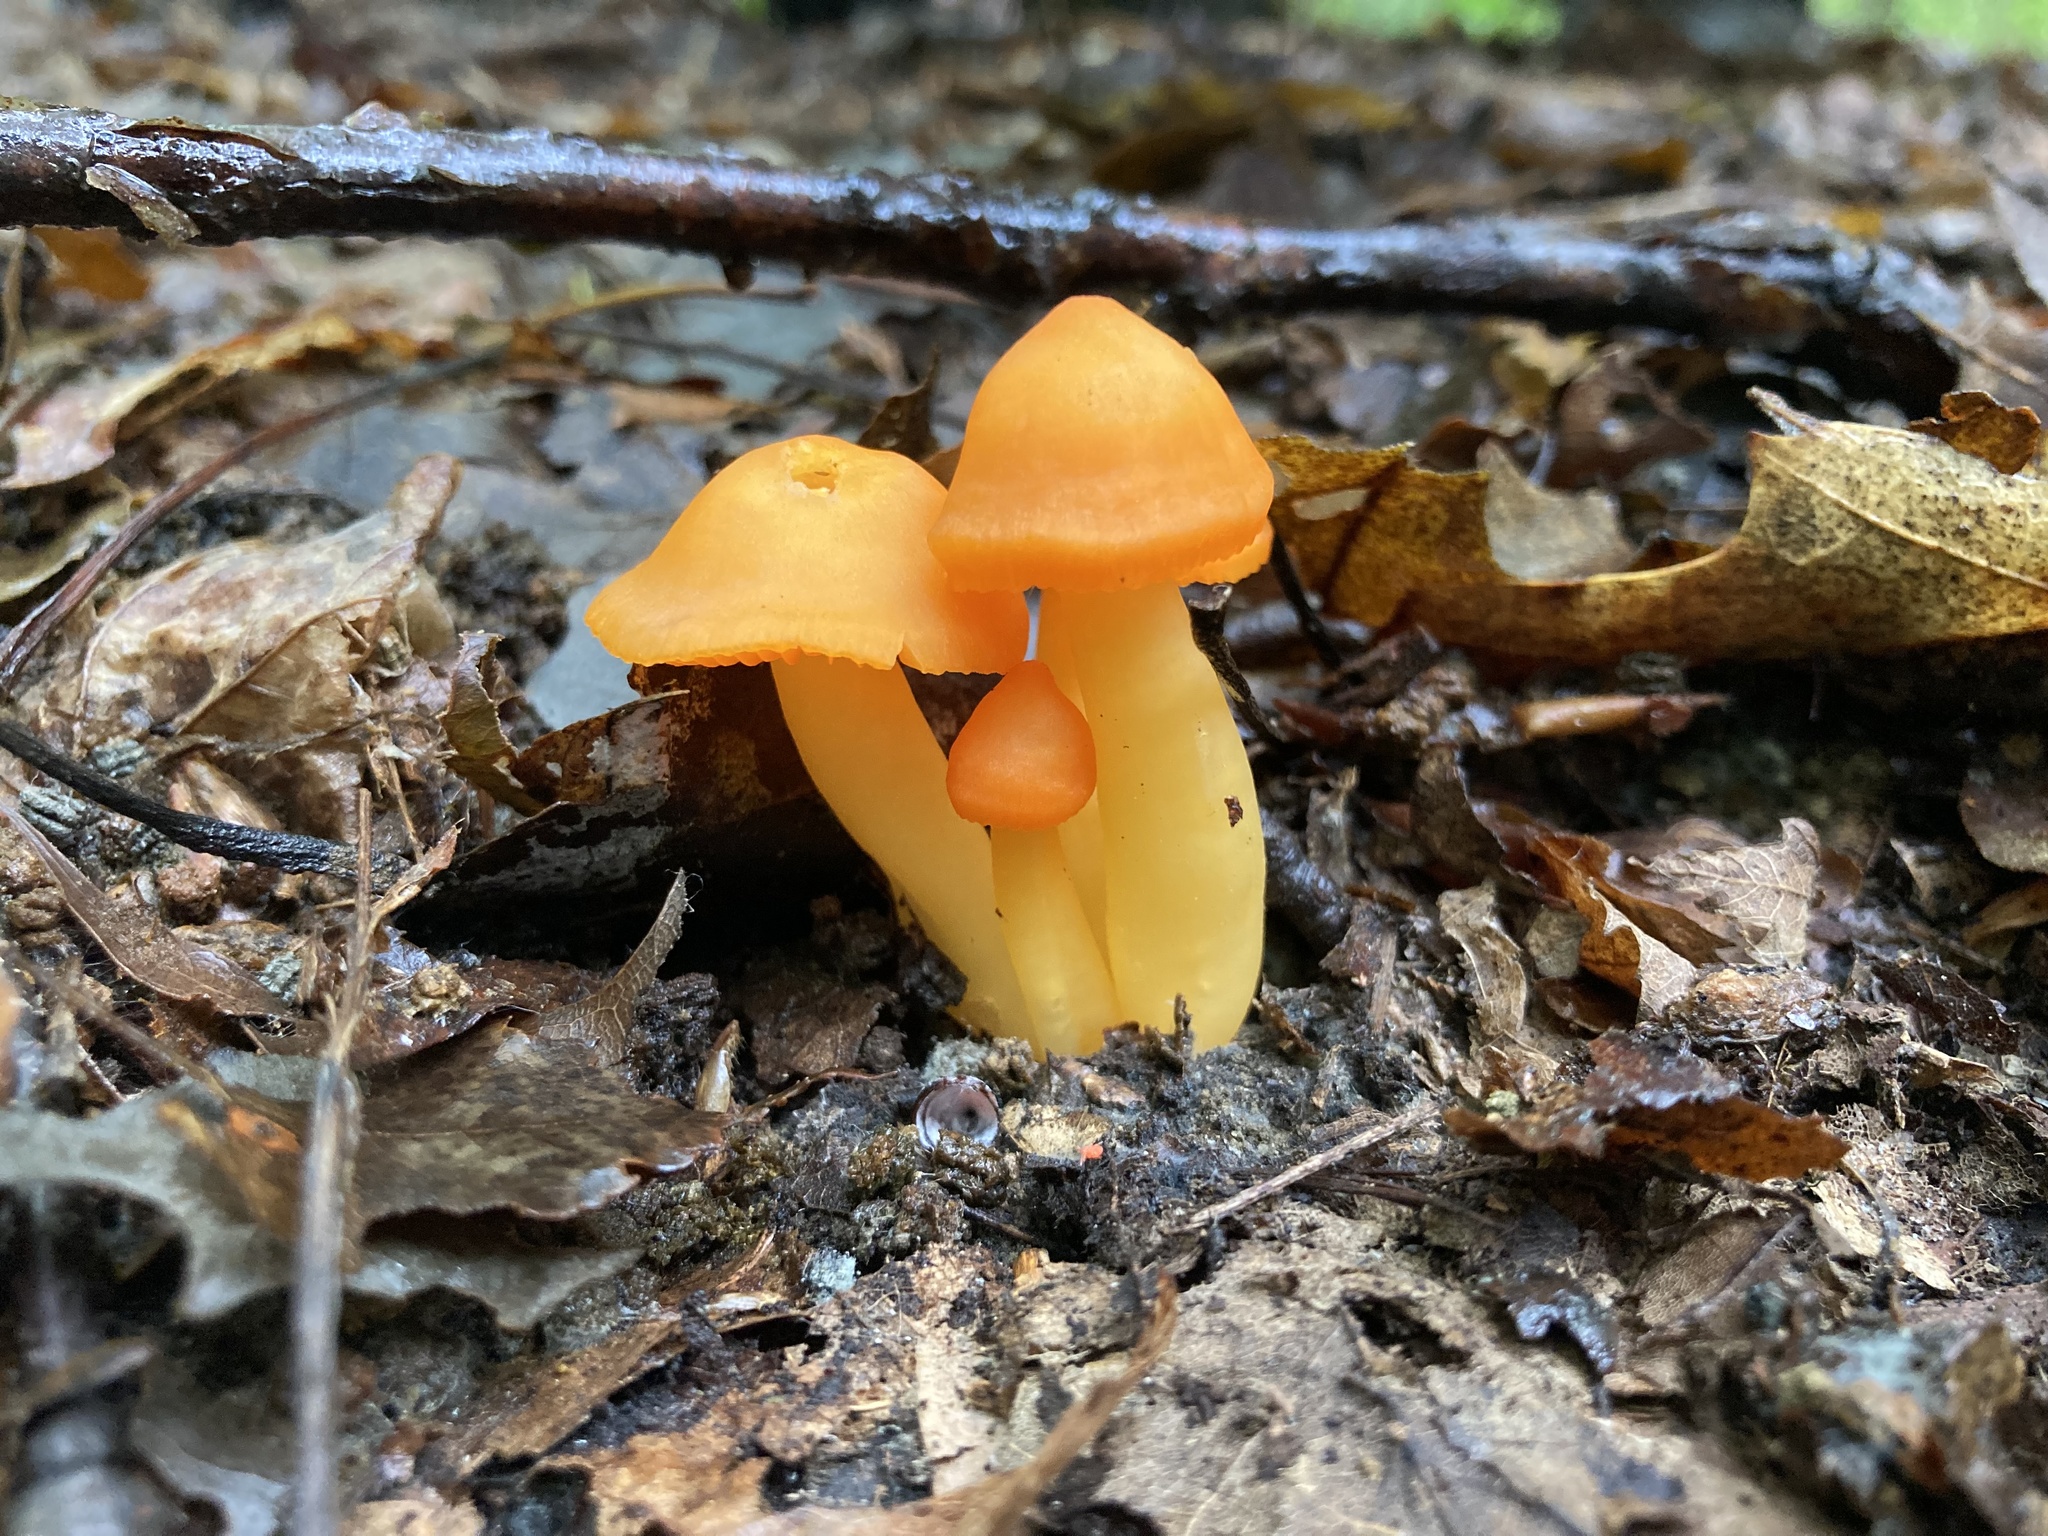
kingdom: Fungi
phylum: Basidiomycota
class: Agaricomycetes
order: Agaricales
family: Hygrophoraceae
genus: Humidicutis
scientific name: Humidicutis marginata
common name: Orange gilled waxcap
